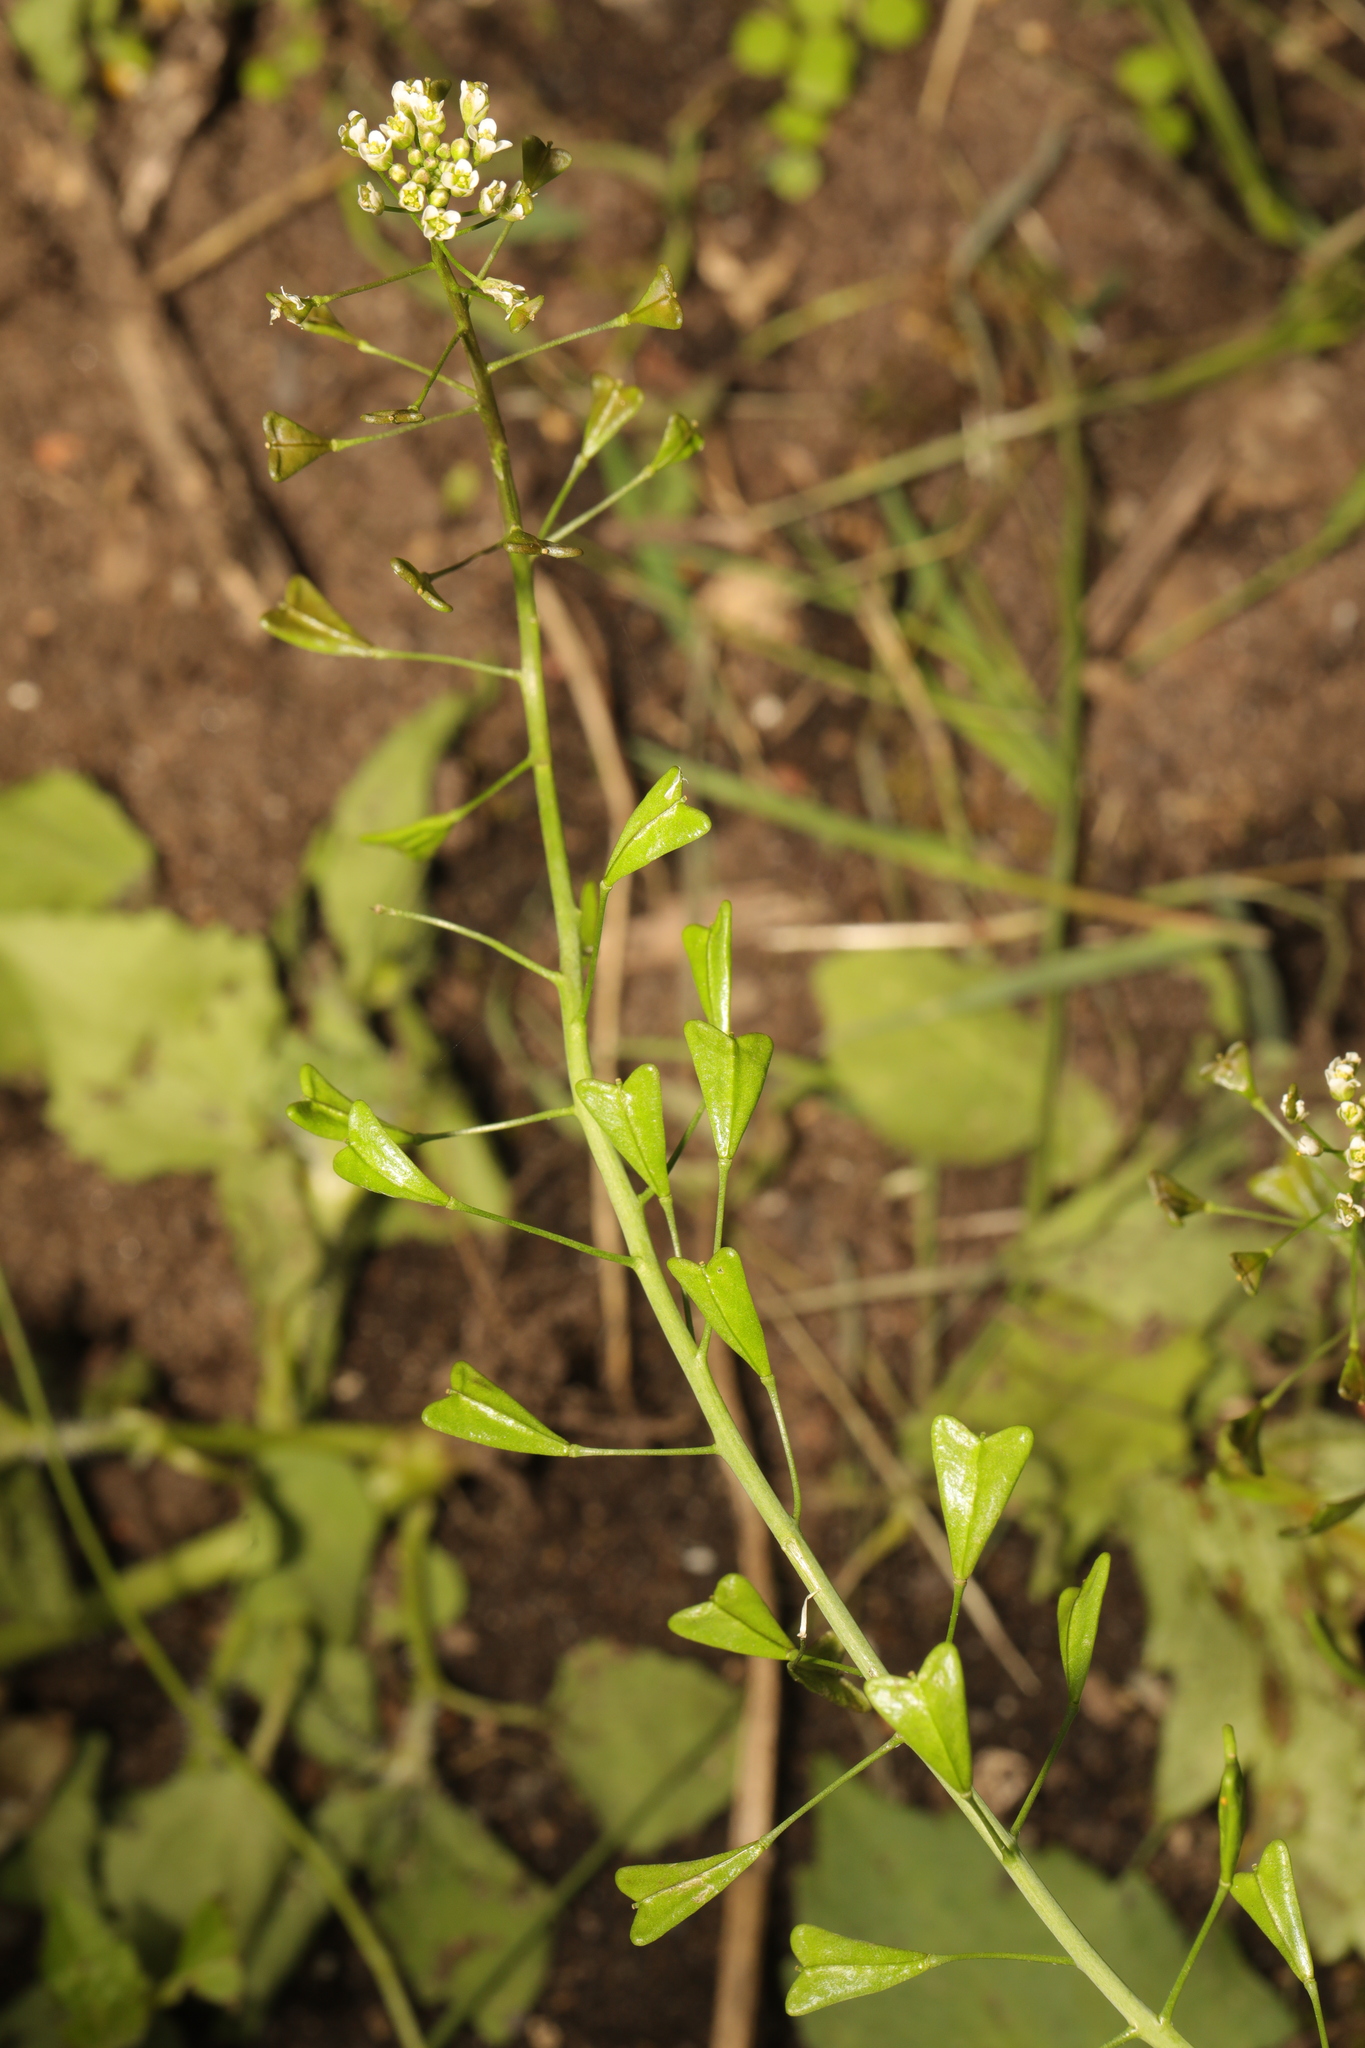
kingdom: Plantae
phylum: Tracheophyta
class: Magnoliopsida
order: Brassicales
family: Brassicaceae
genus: Capsella
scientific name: Capsella bursa-pastoris
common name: Shepherd's purse
